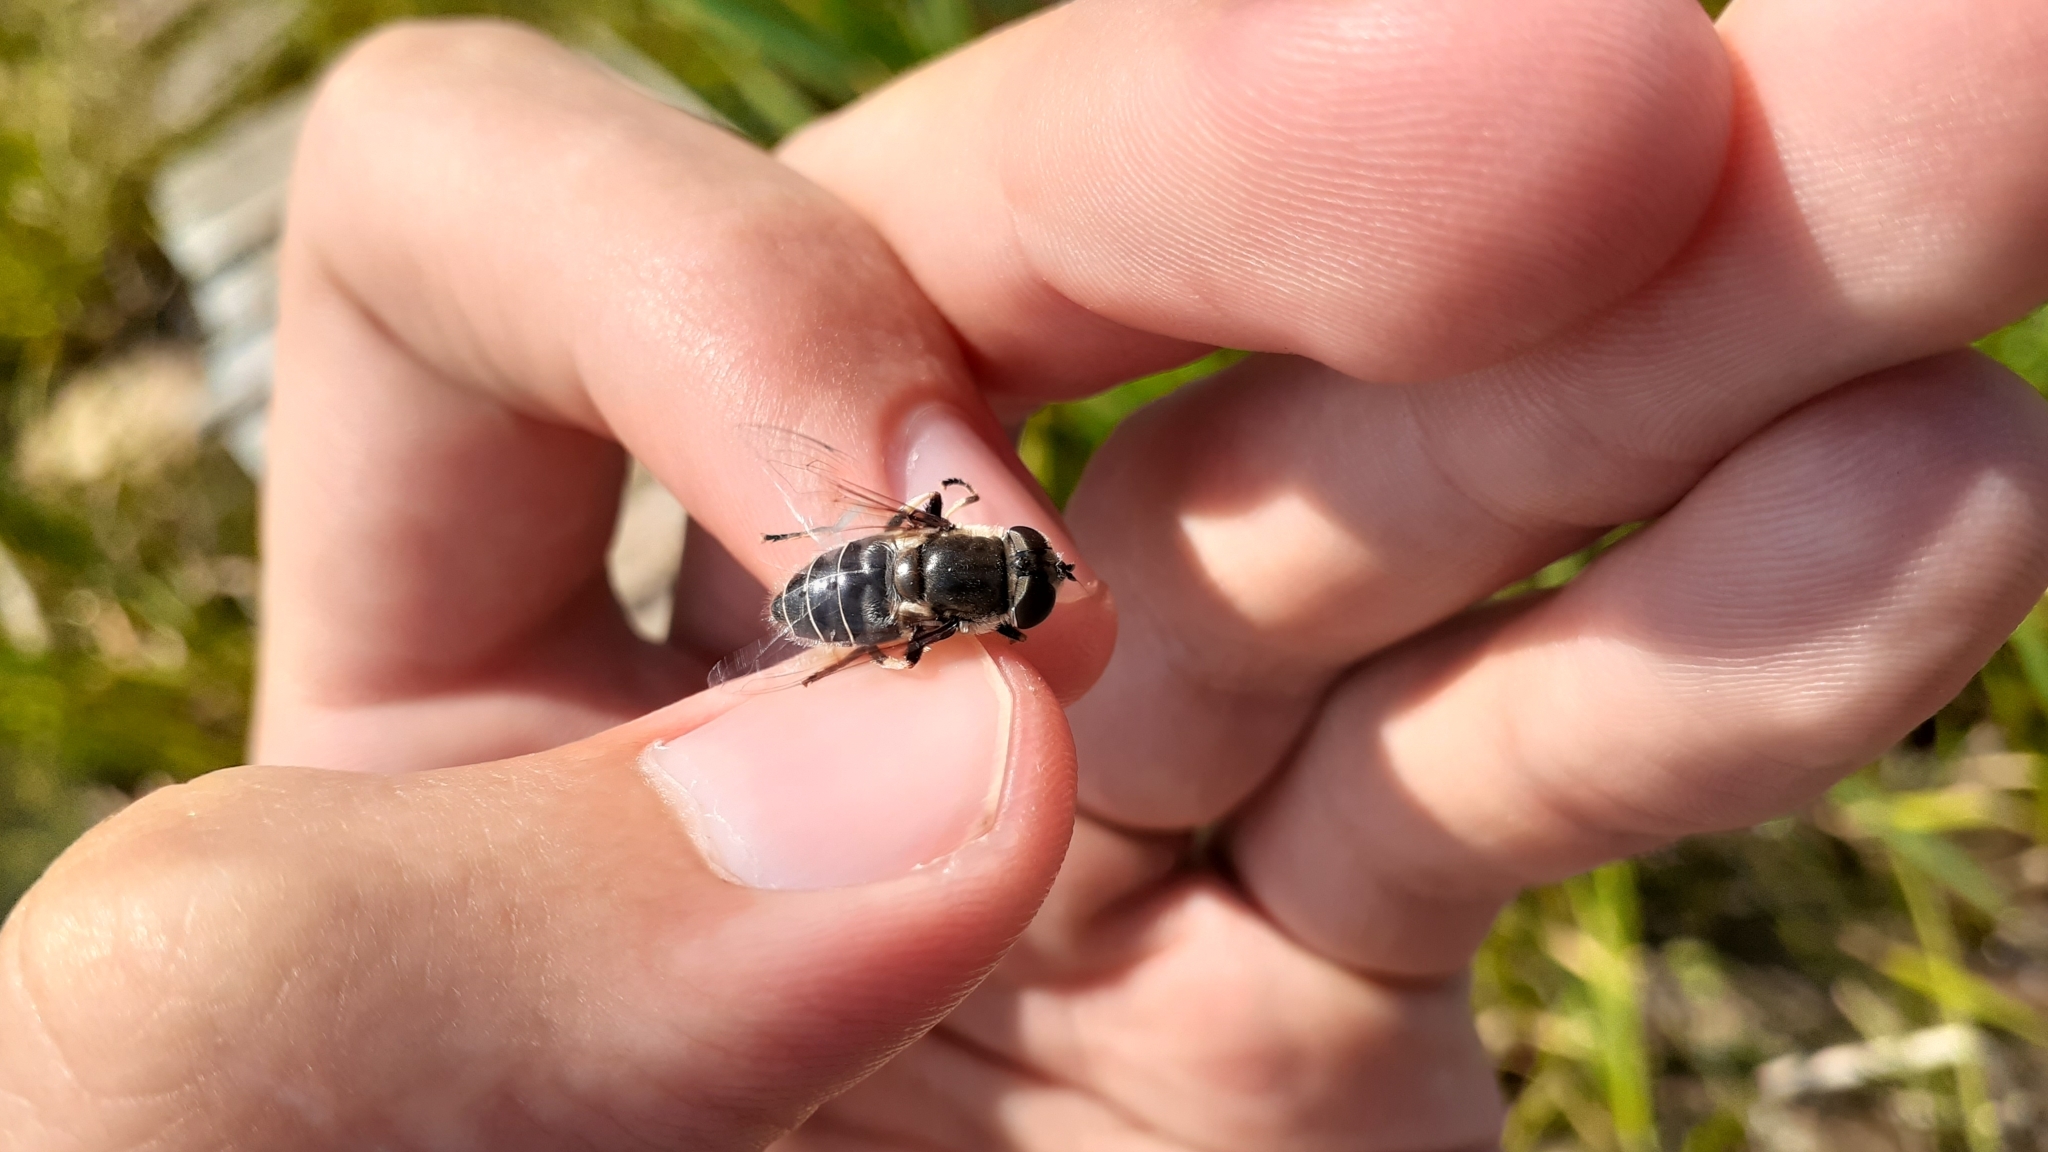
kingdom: Animalia
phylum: Arthropoda
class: Insecta
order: Diptera
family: Syrphidae
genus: Eristalis
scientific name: Eristalis dimidiata
